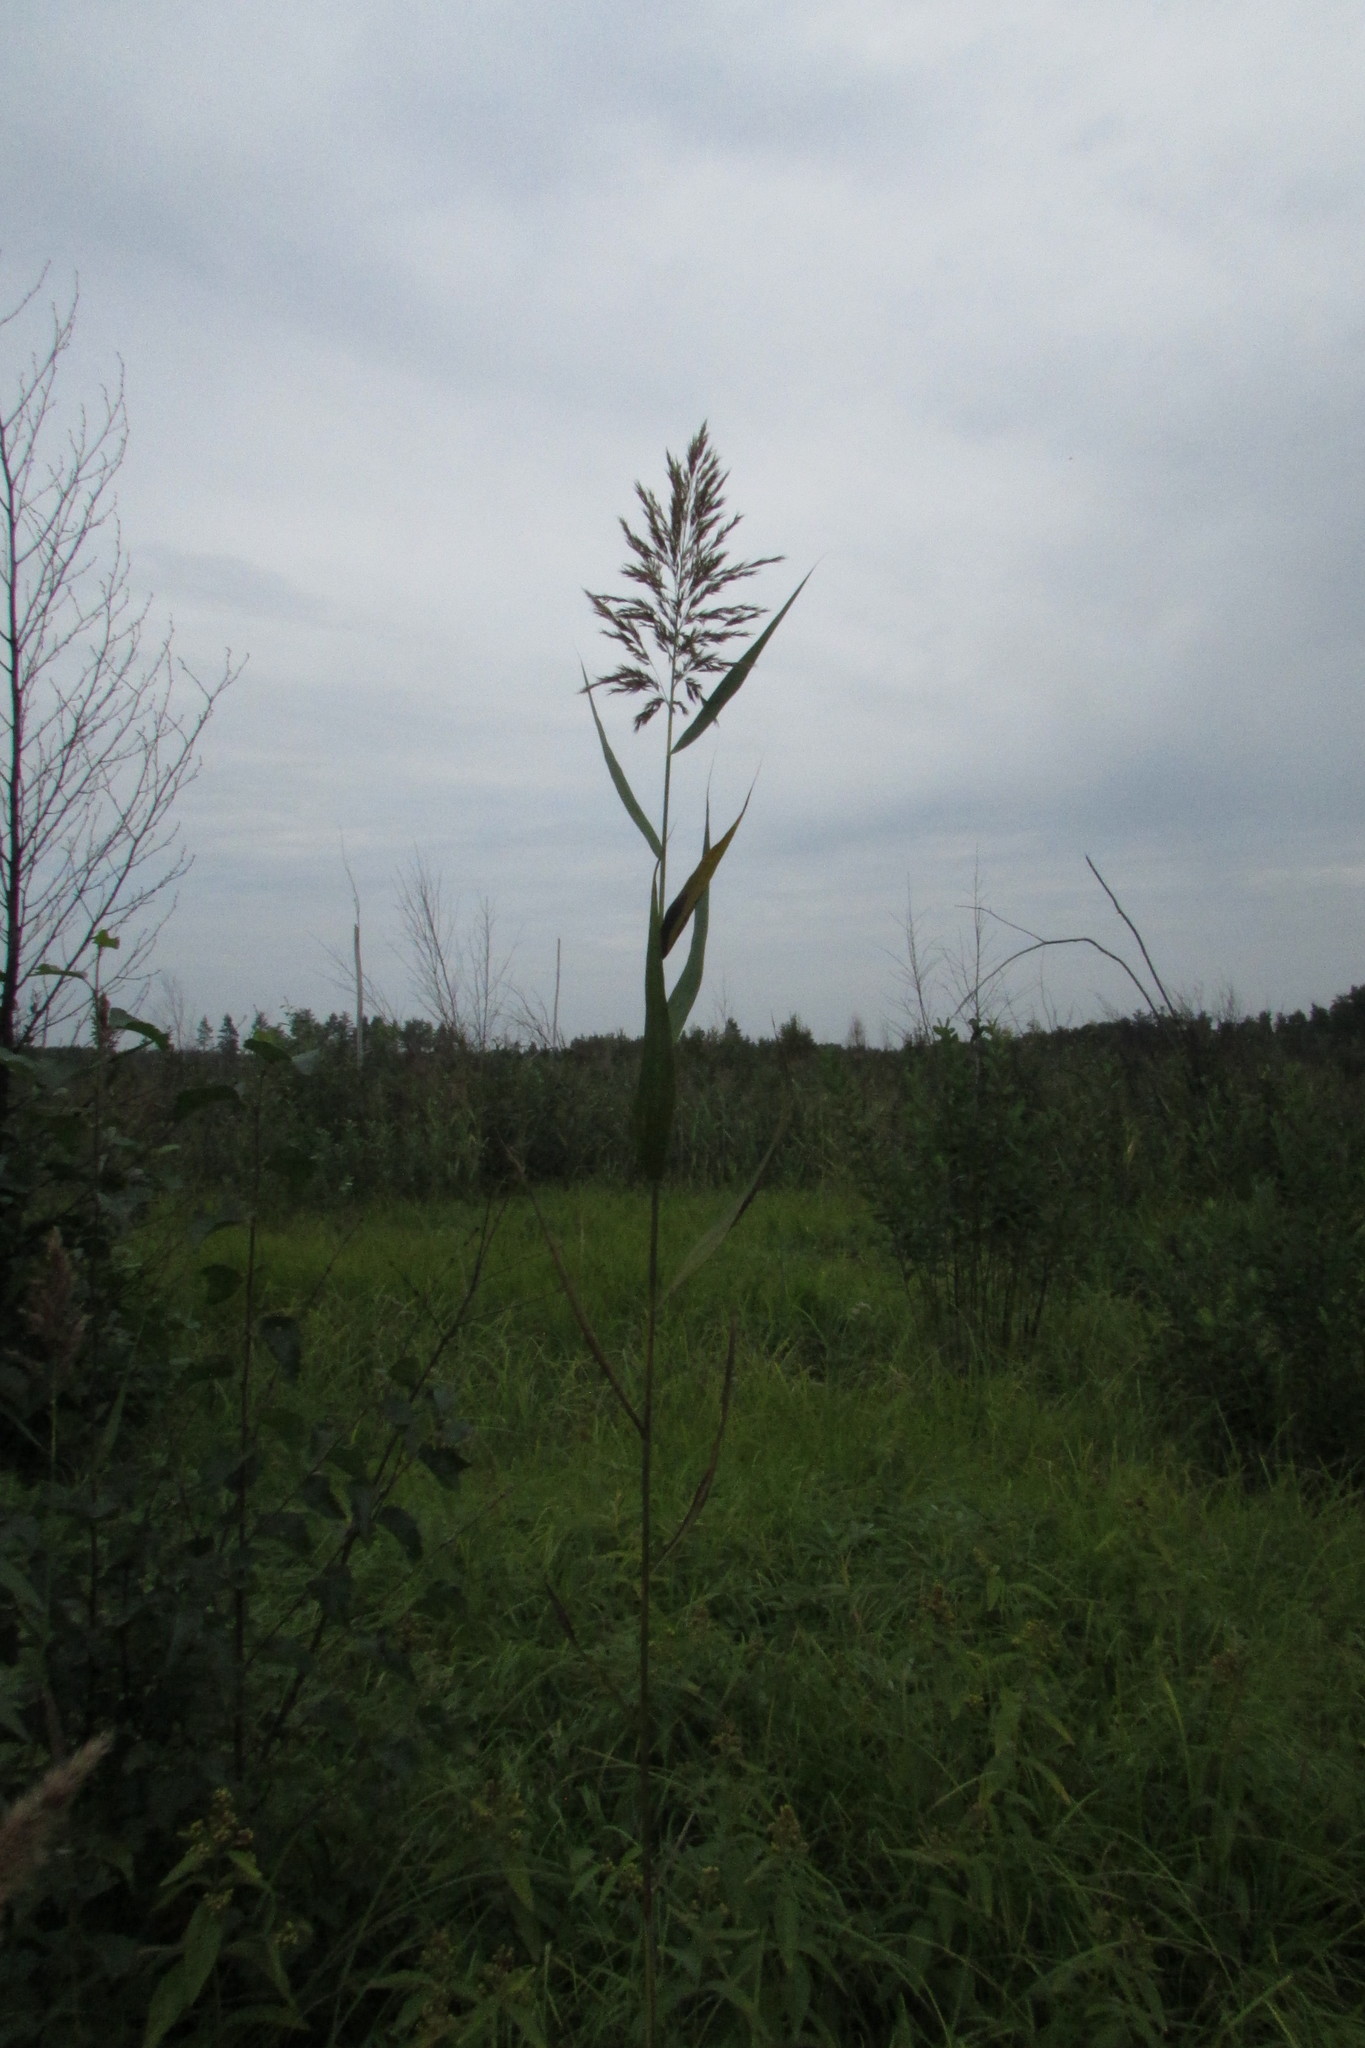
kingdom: Plantae
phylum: Tracheophyta
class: Liliopsida
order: Poales
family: Poaceae
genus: Phragmites
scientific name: Phragmites australis
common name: Common reed
